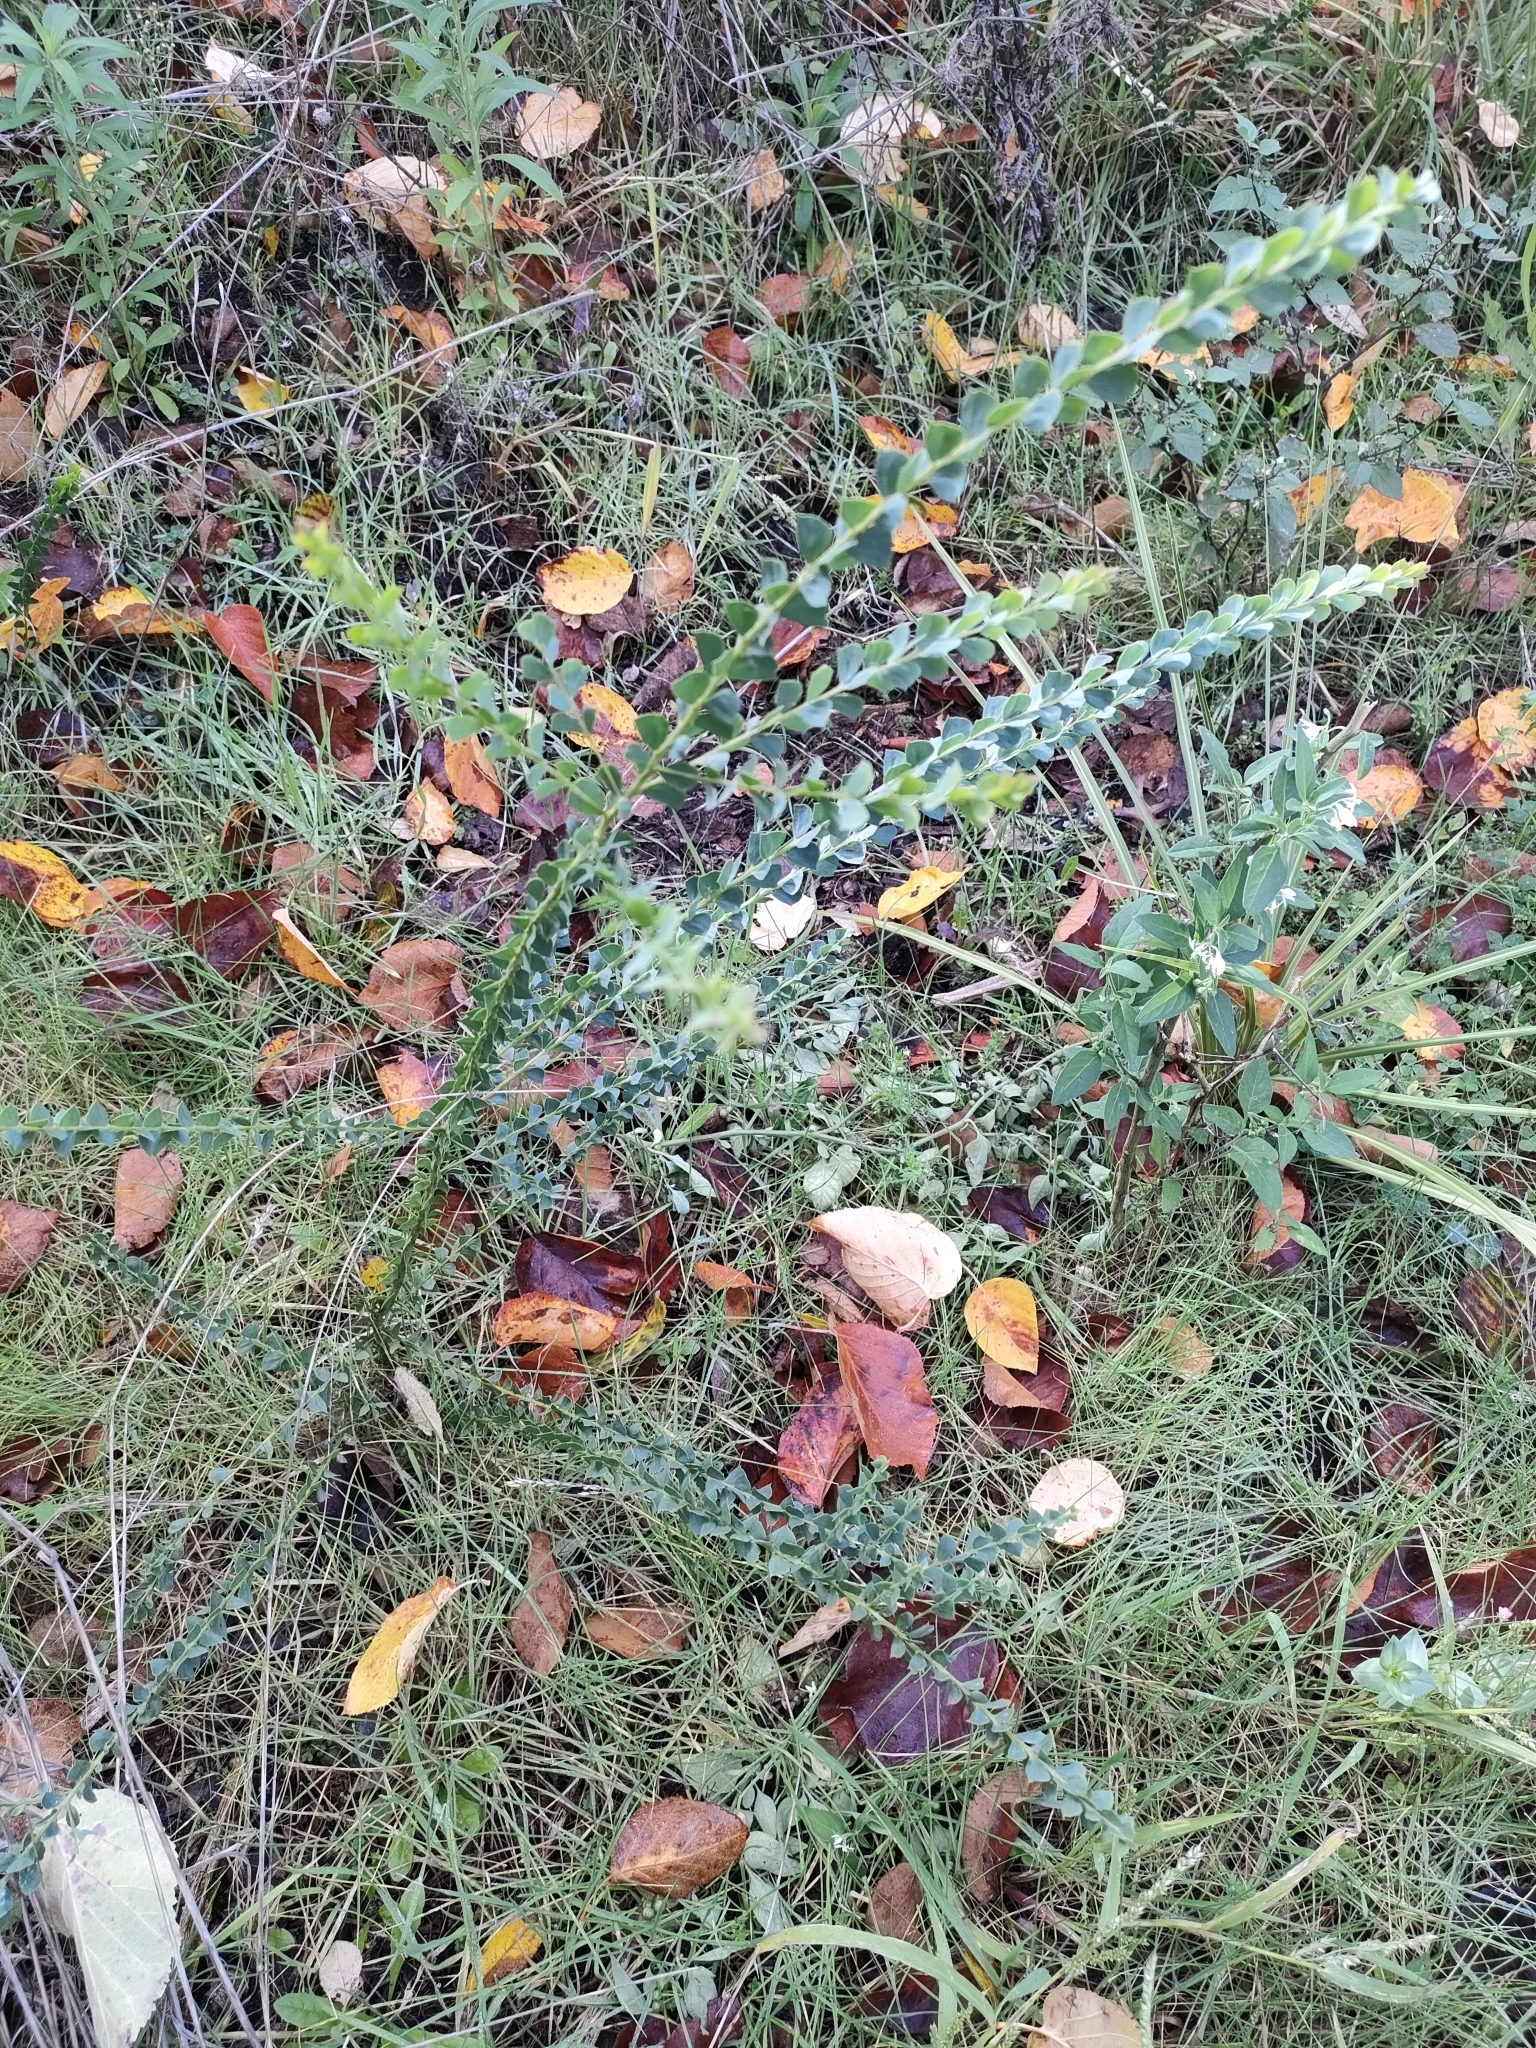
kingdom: Plantae
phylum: Tracheophyta
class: Magnoliopsida
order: Fabales
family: Fabaceae
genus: Acacia
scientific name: Acacia pravissima
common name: Tumut wattle
